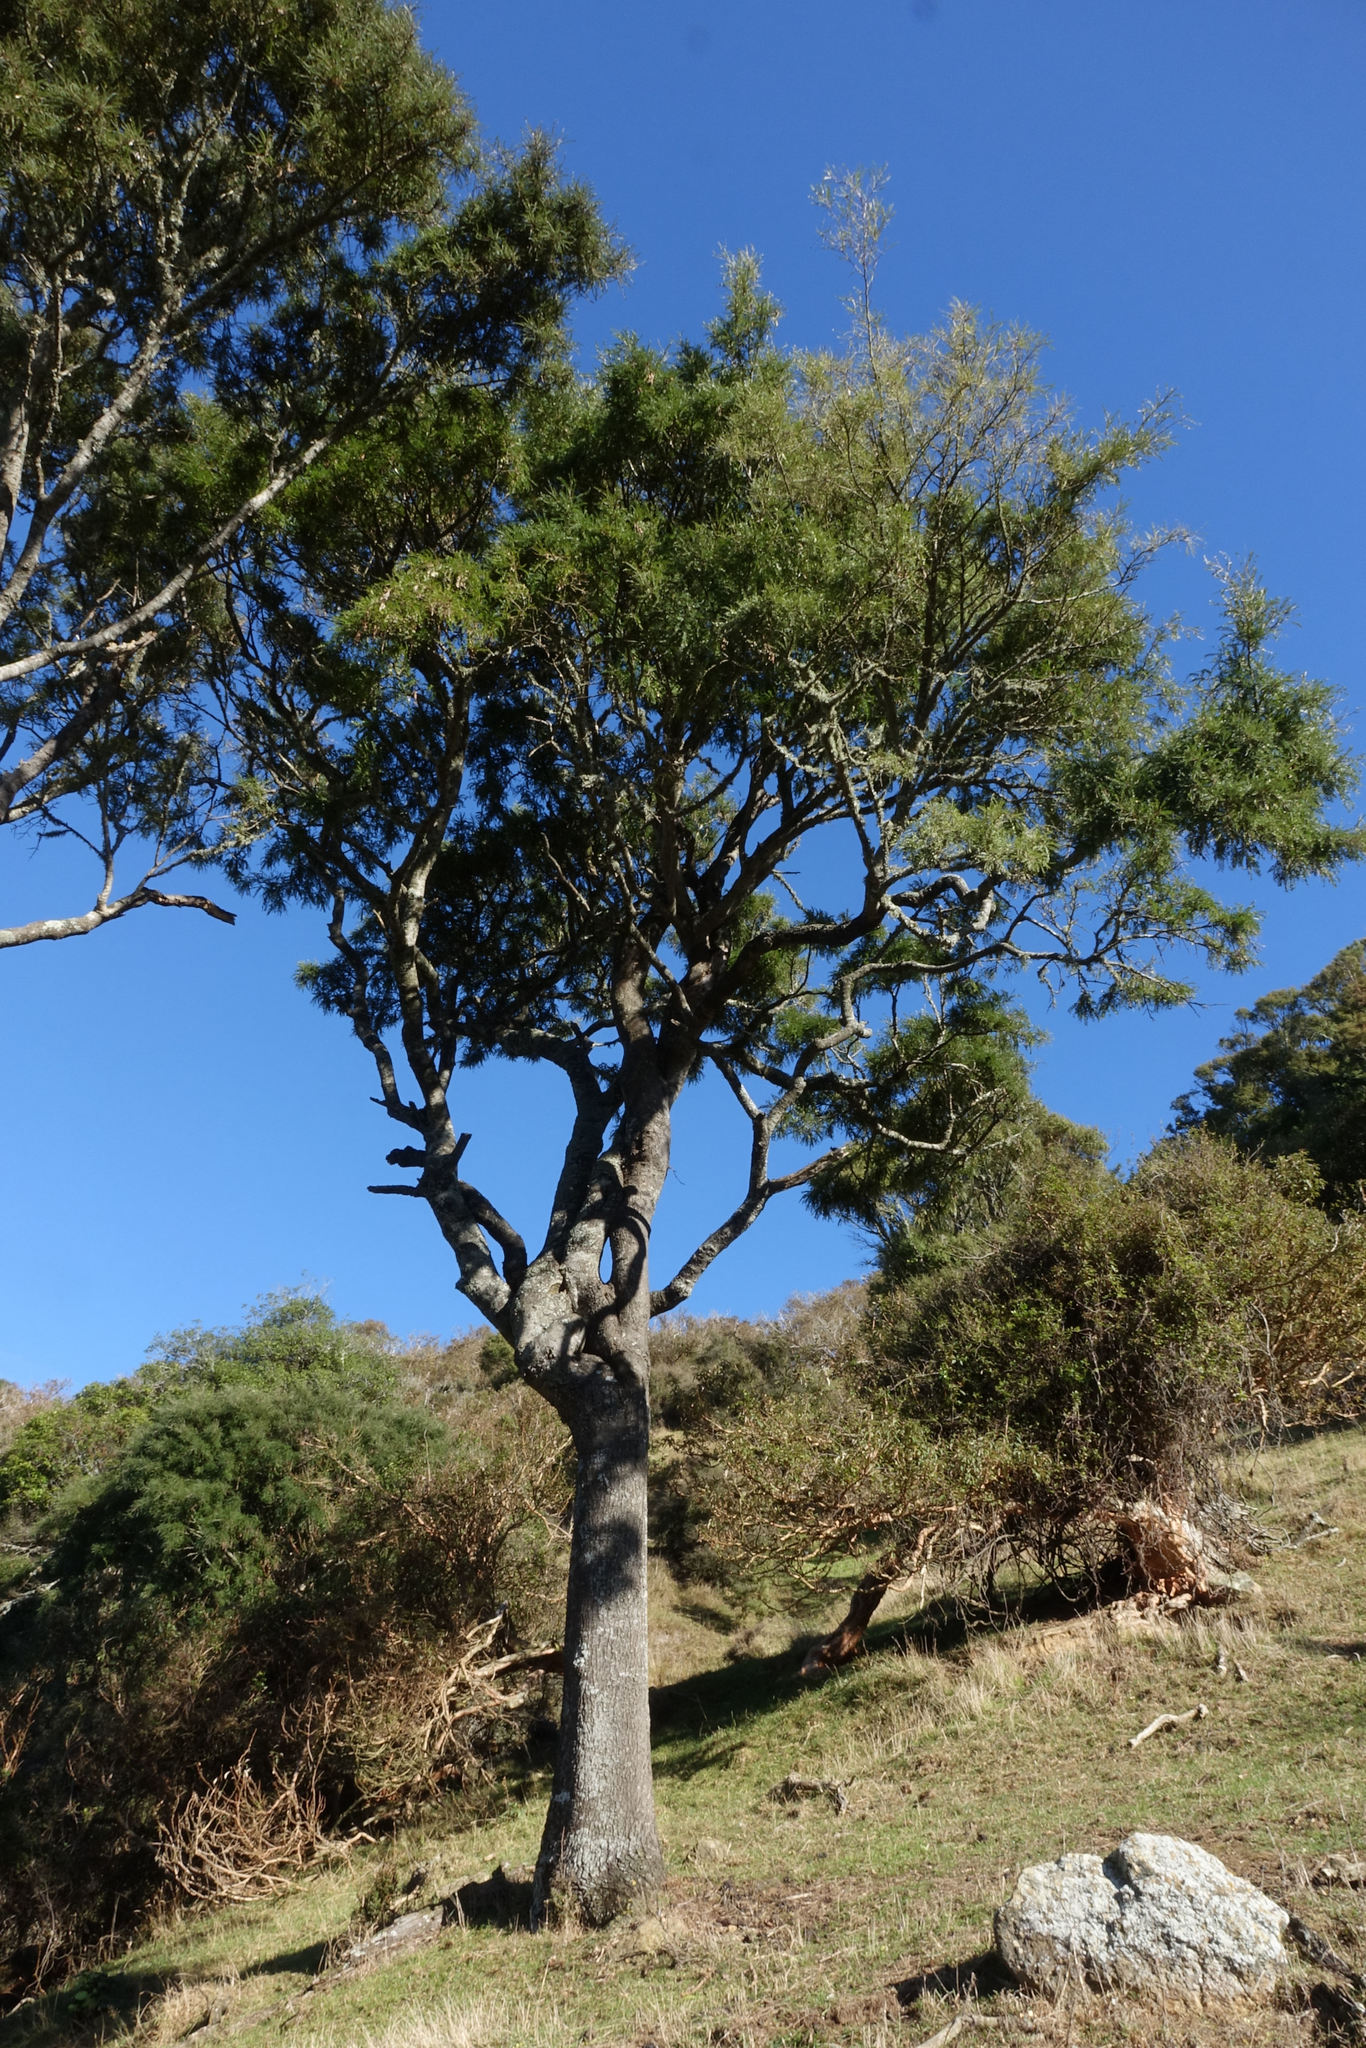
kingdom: Plantae
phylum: Tracheophyta
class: Magnoliopsida
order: Fabales
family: Fabaceae
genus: Sophora
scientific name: Sophora microphylla
